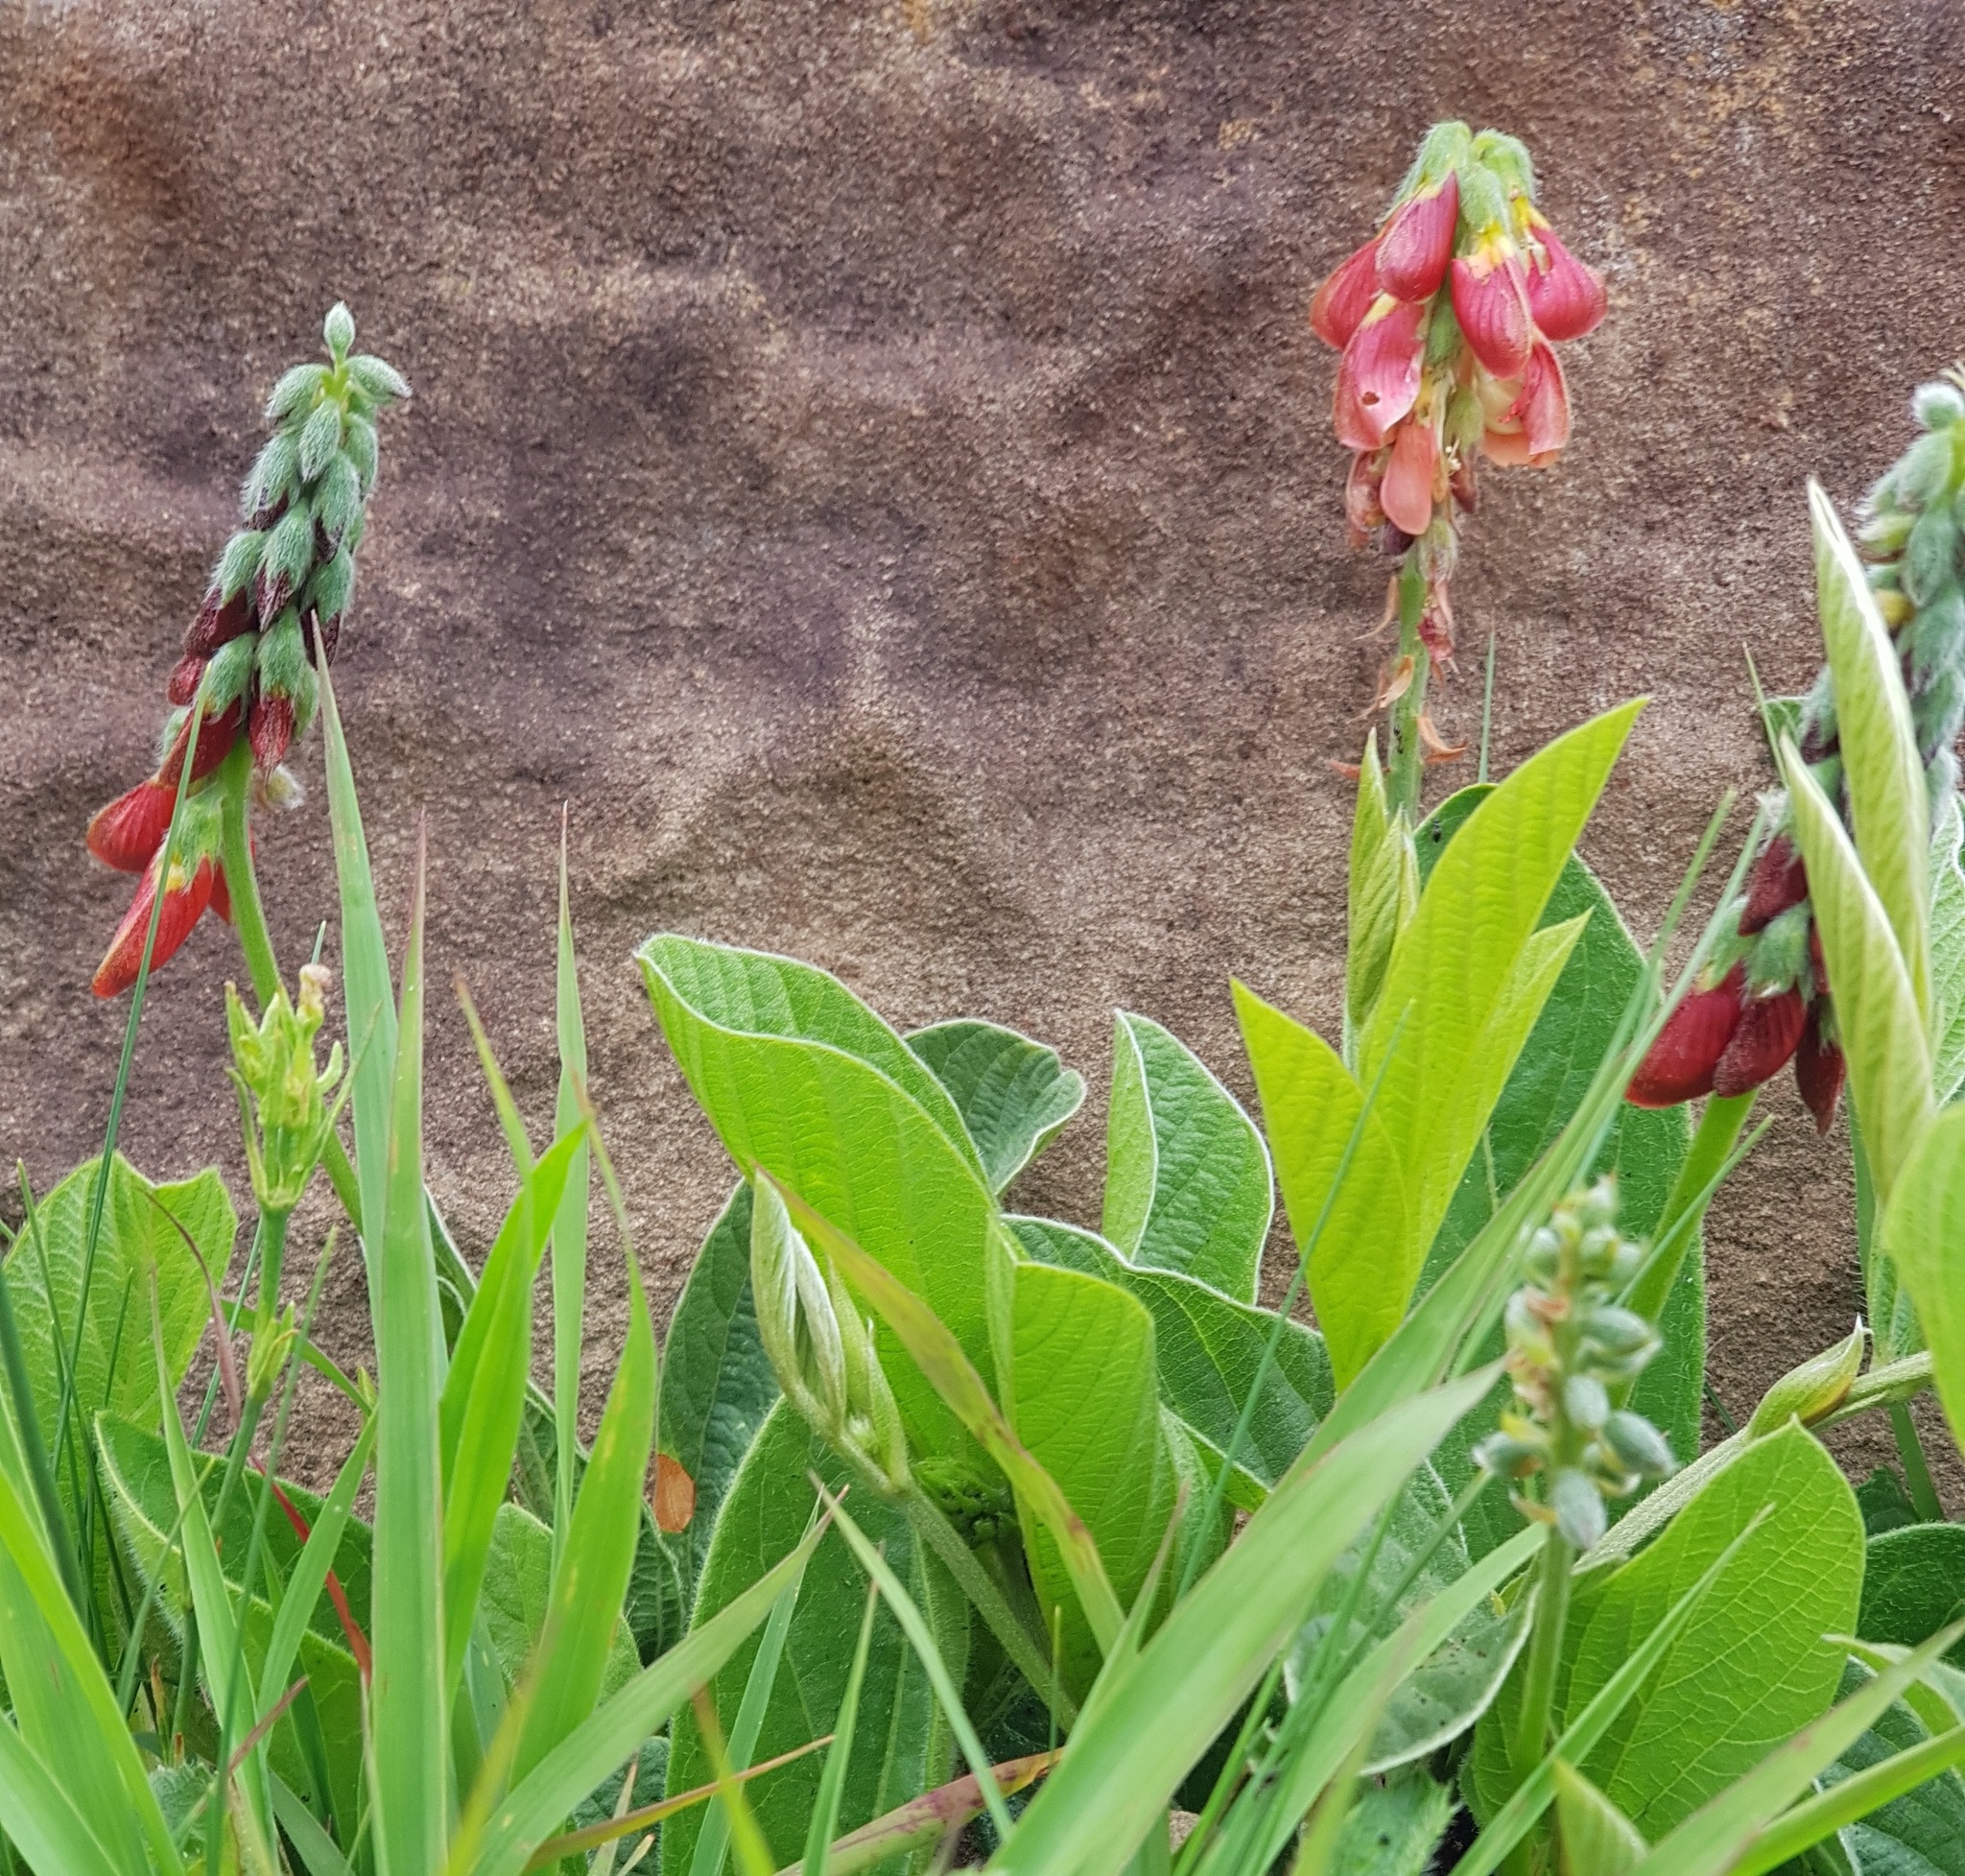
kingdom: Plantae
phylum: Tracheophyta
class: Magnoliopsida
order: Fabales
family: Fabaceae
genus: Eriosema
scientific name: Eriosema distinctum
